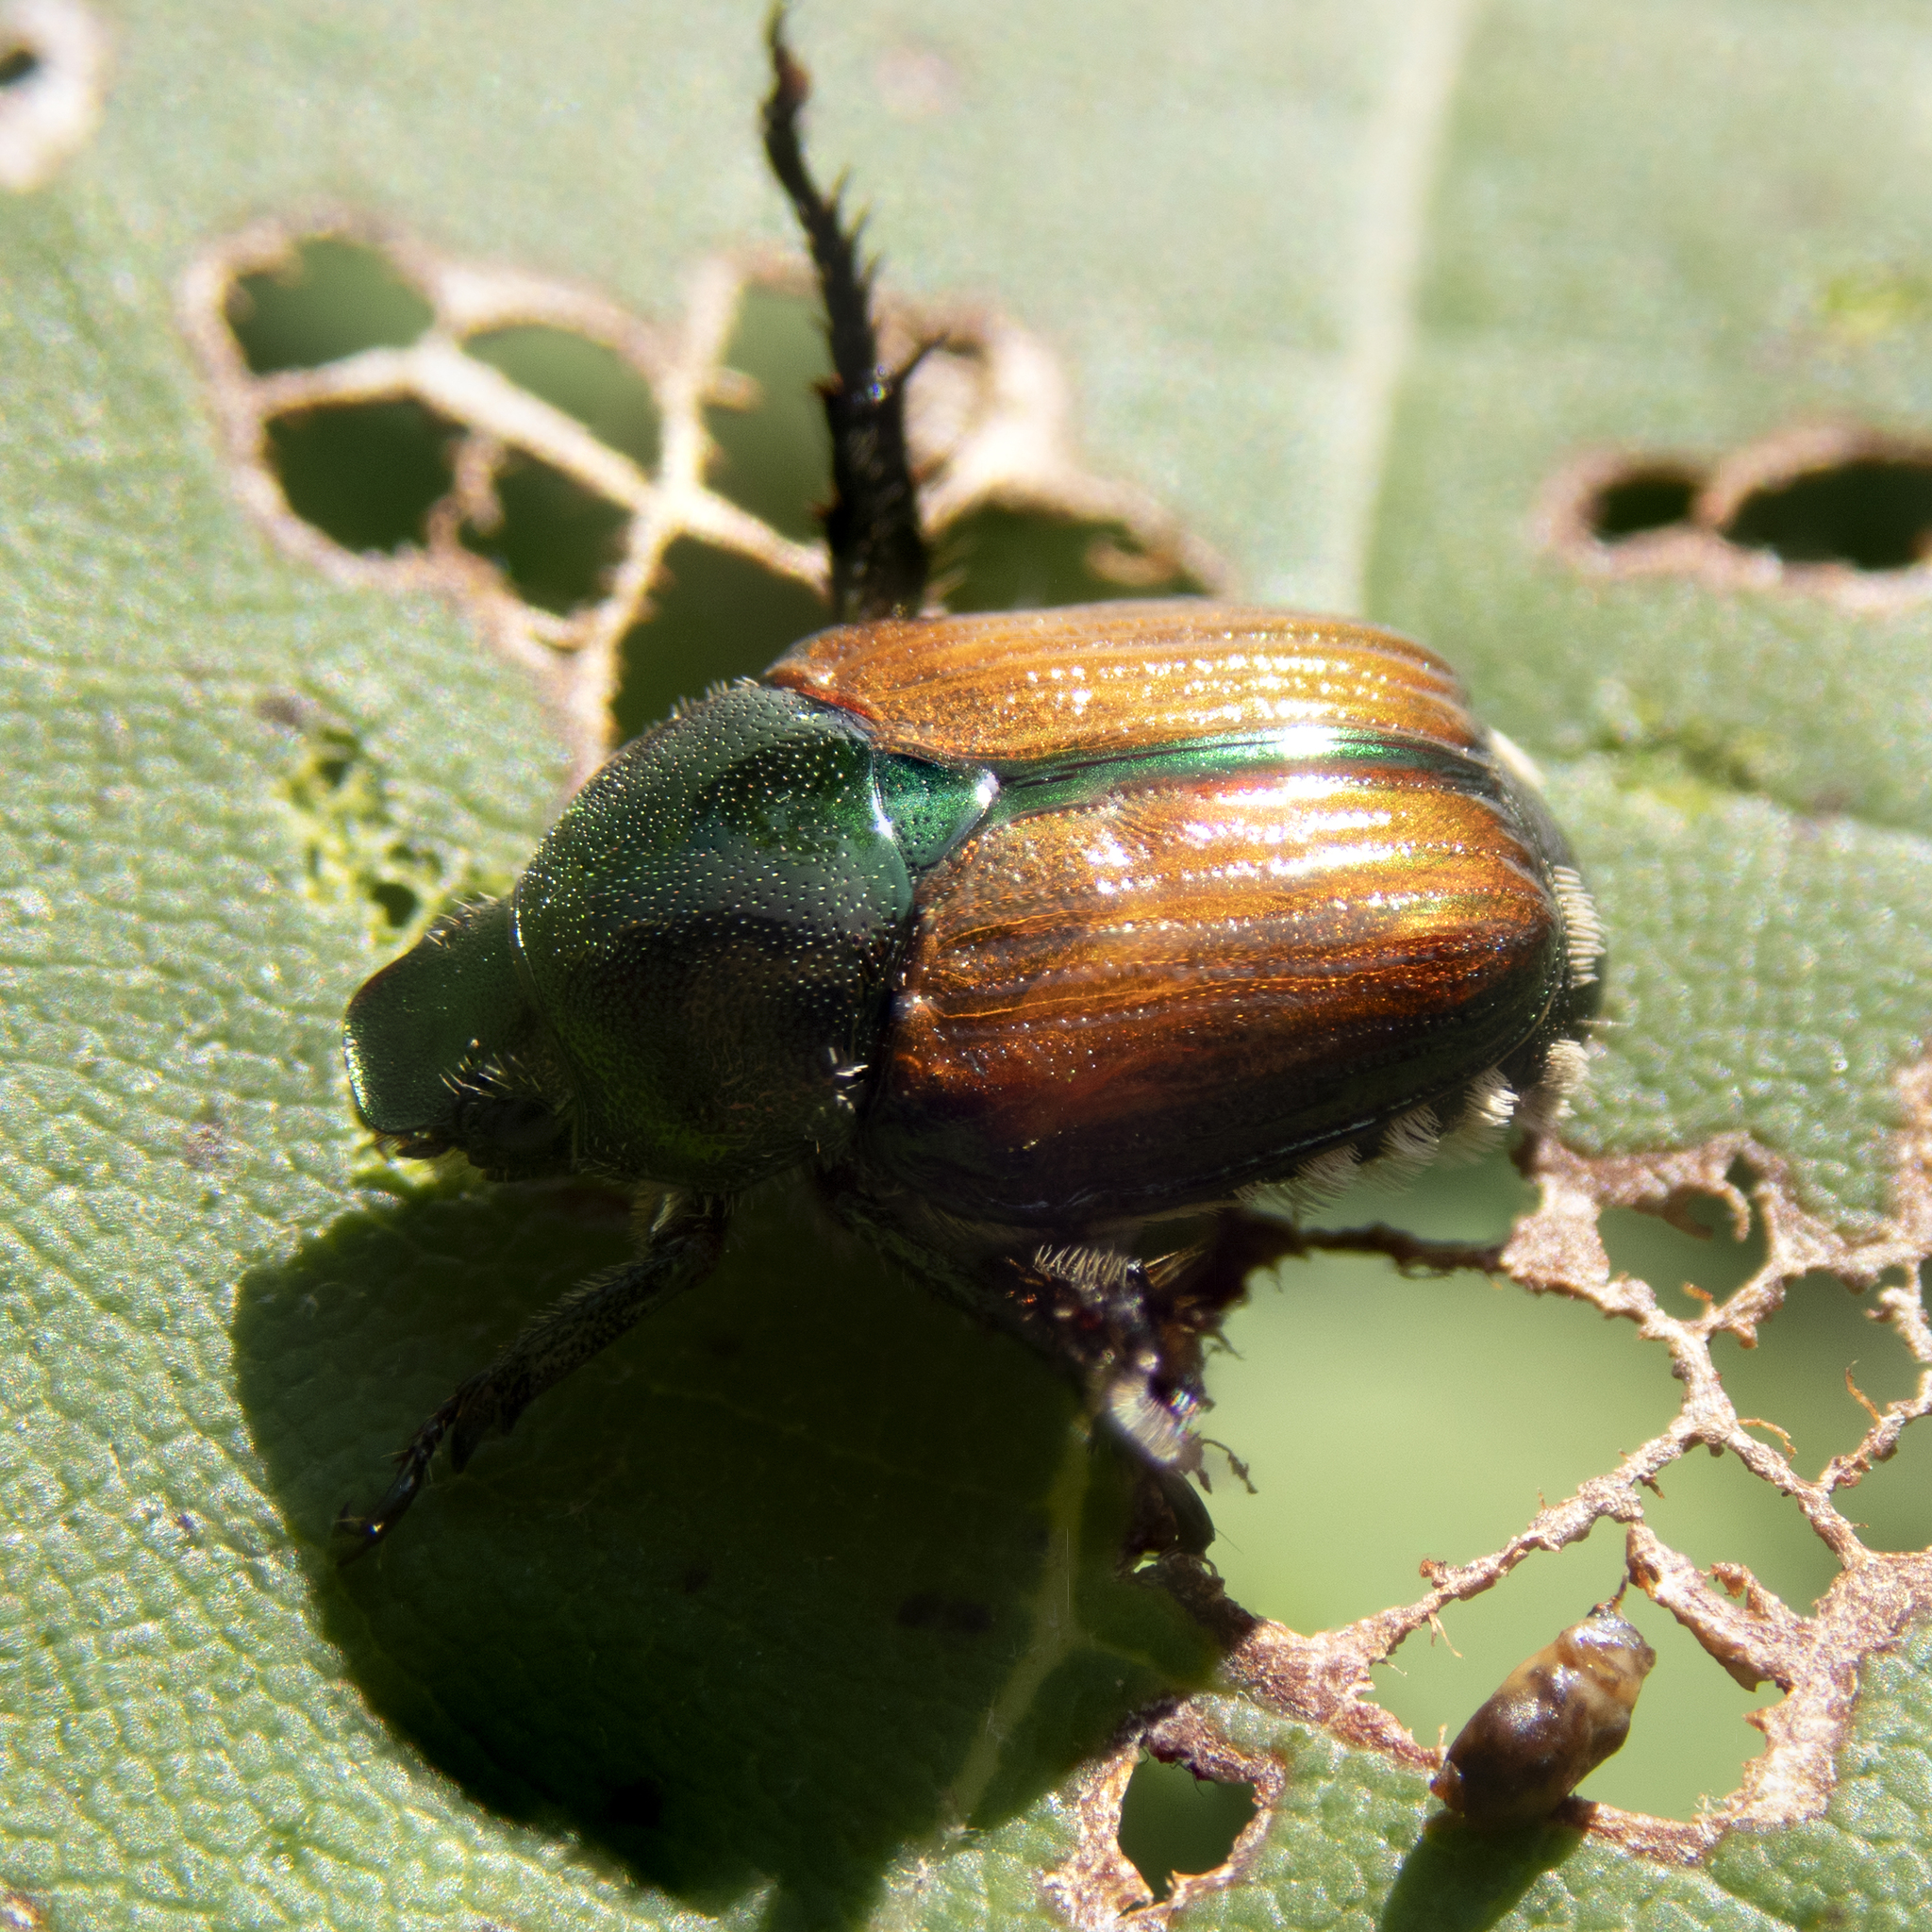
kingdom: Animalia
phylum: Arthropoda
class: Insecta
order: Coleoptera
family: Scarabaeidae
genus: Popillia
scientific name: Popillia japonica
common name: Japanese beetle
